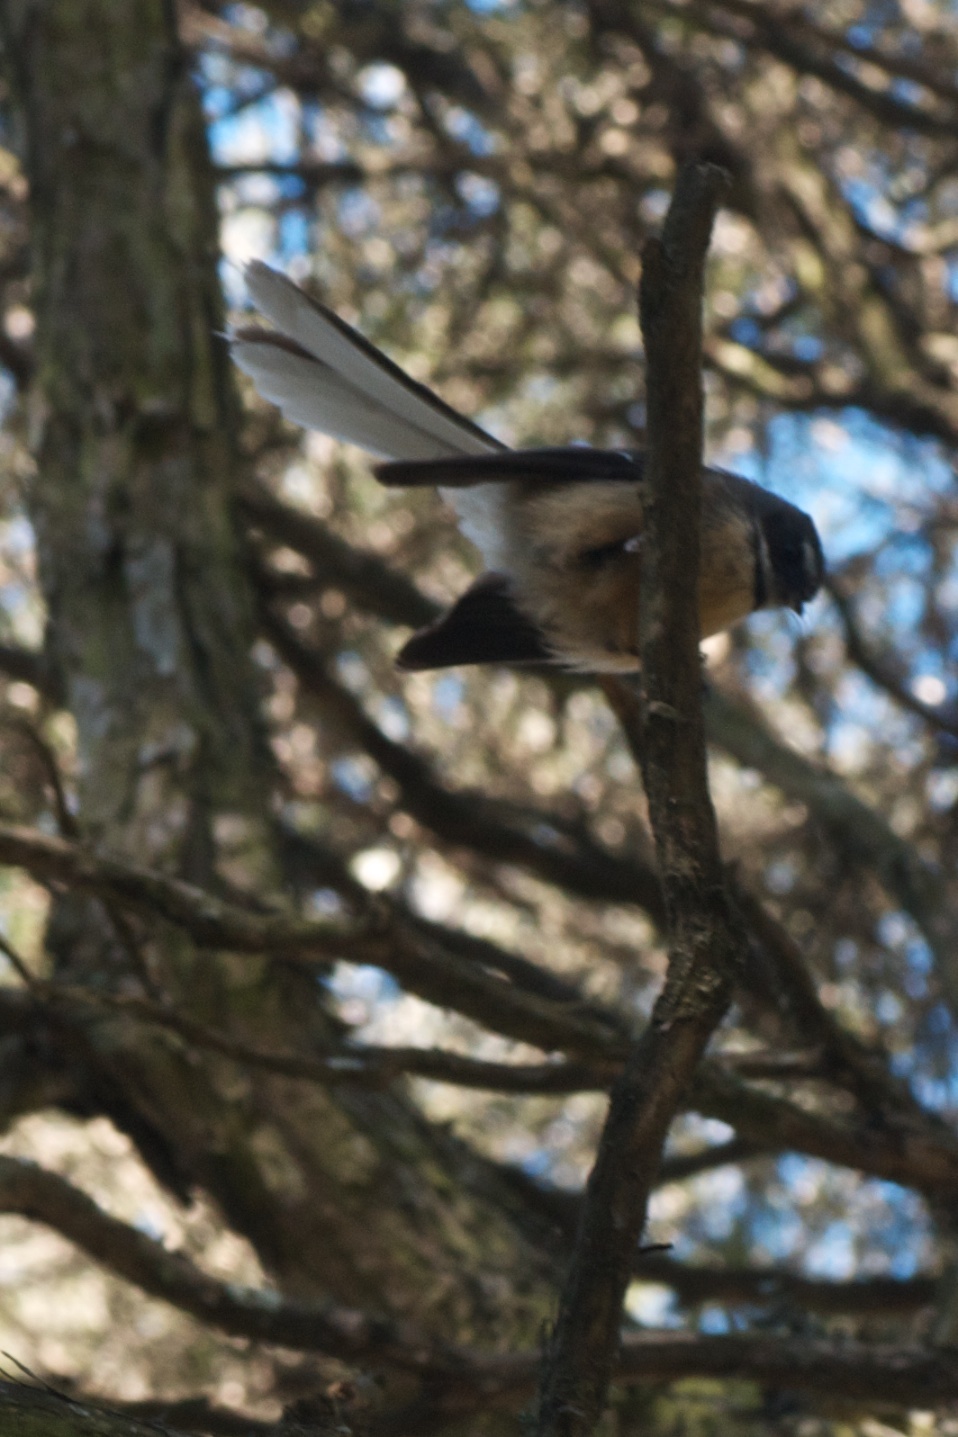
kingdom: Animalia
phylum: Chordata
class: Aves
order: Passeriformes
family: Rhipiduridae
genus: Rhipidura
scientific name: Rhipidura fuliginosa
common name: New zealand fantail
